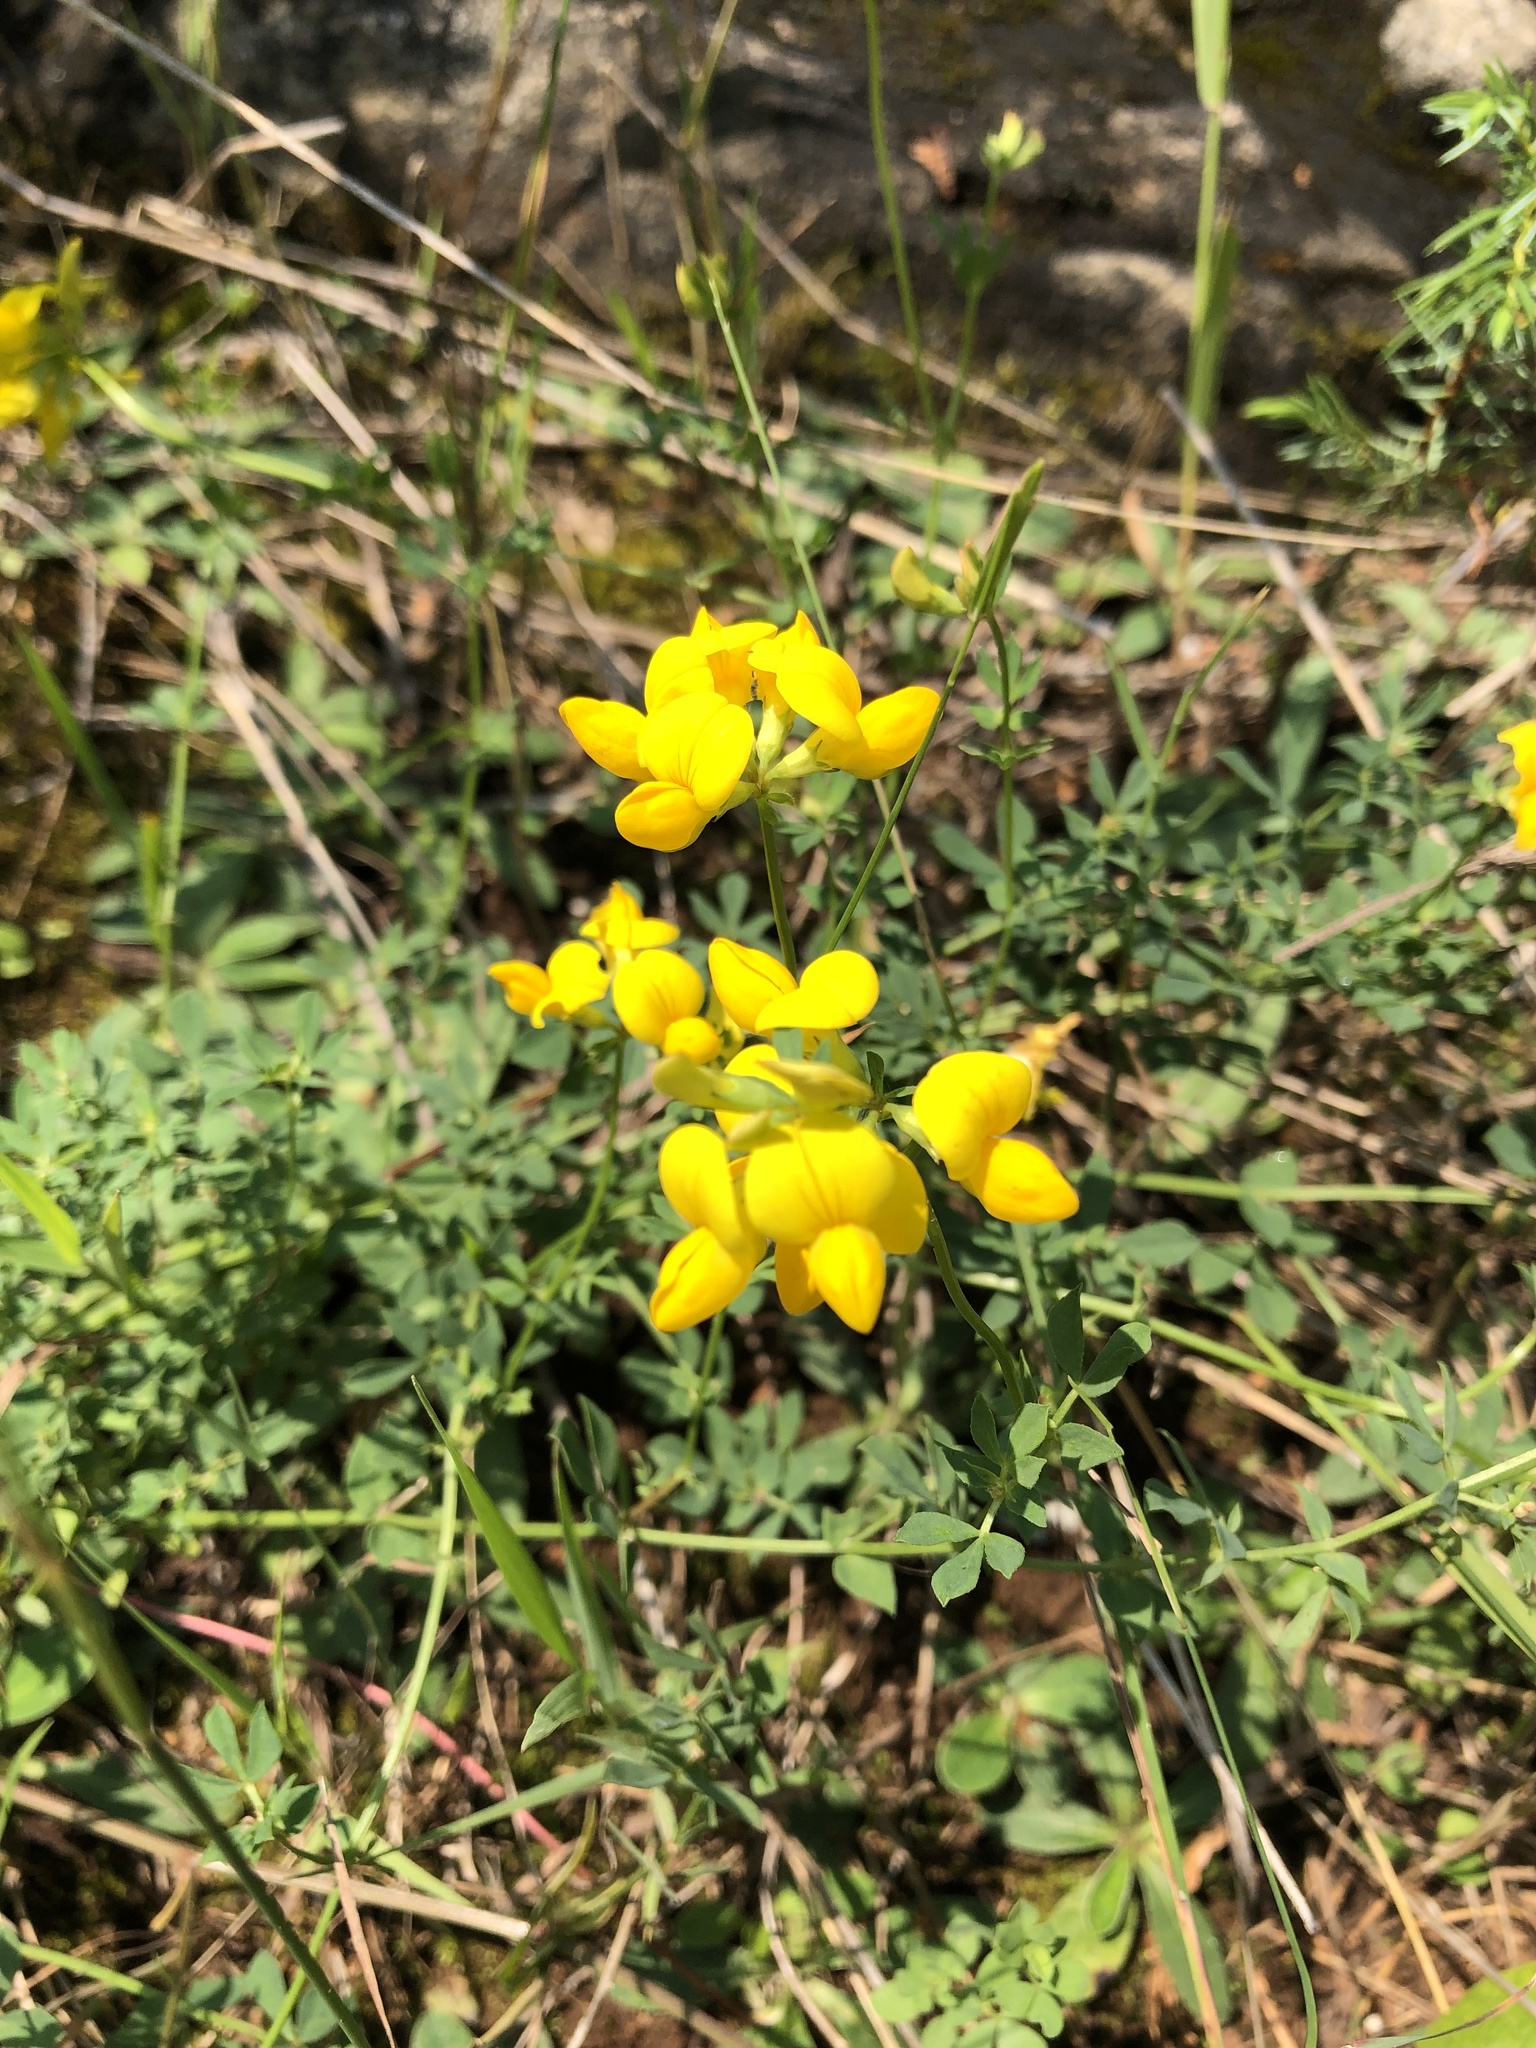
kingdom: Plantae
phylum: Tracheophyta
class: Magnoliopsida
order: Fabales
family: Fabaceae
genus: Lotus
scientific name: Lotus corniculatus
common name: Common bird's-foot-trefoil
